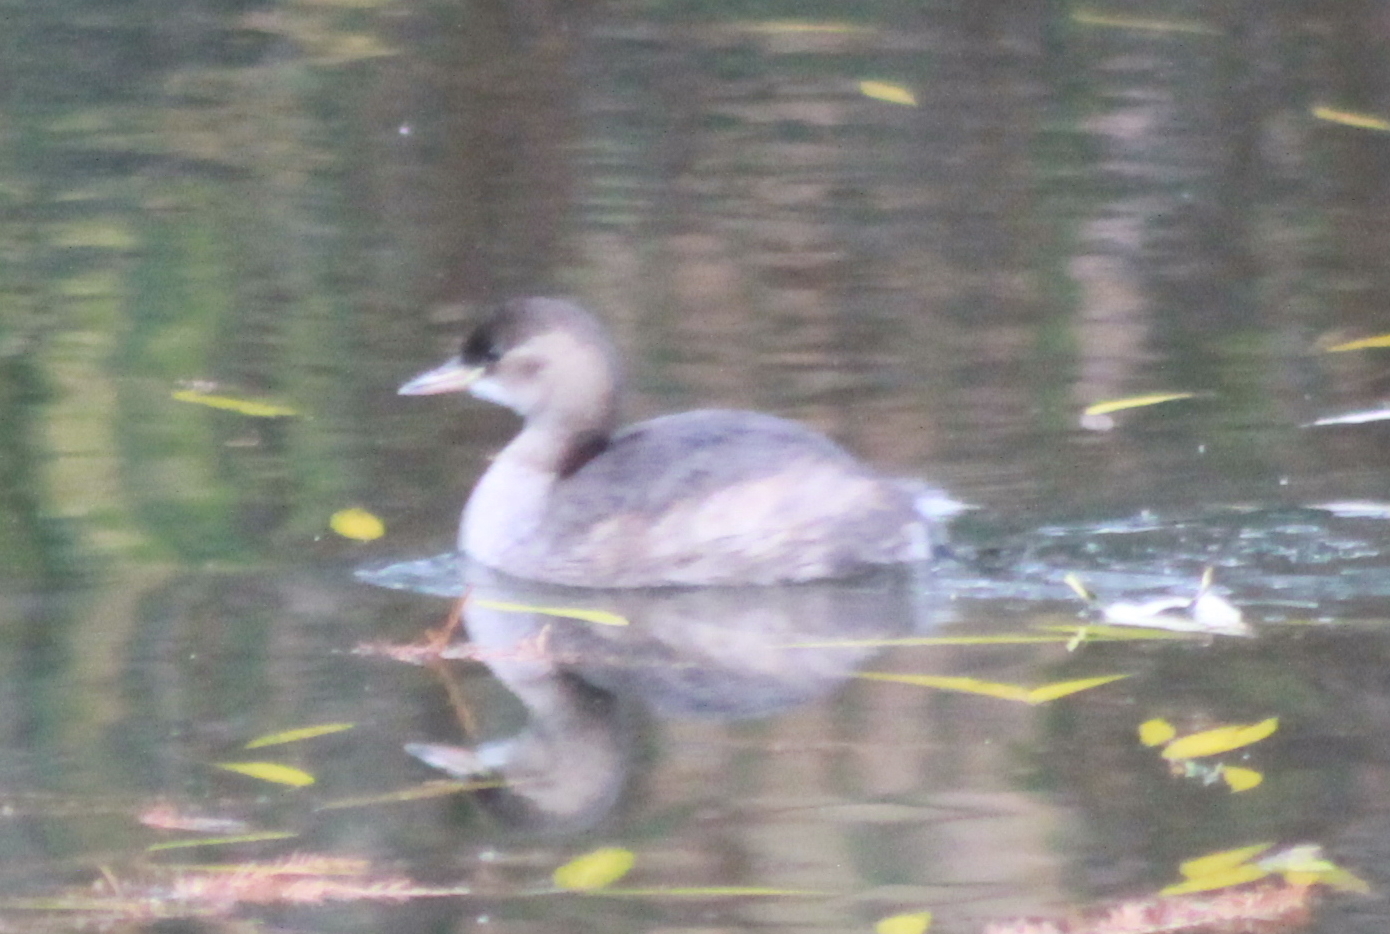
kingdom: Animalia
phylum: Chordata
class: Aves
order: Podicipediformes
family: Podicipedidae
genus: Tachybaptus
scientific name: Tachybaptus ruficollis
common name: Little grebe
